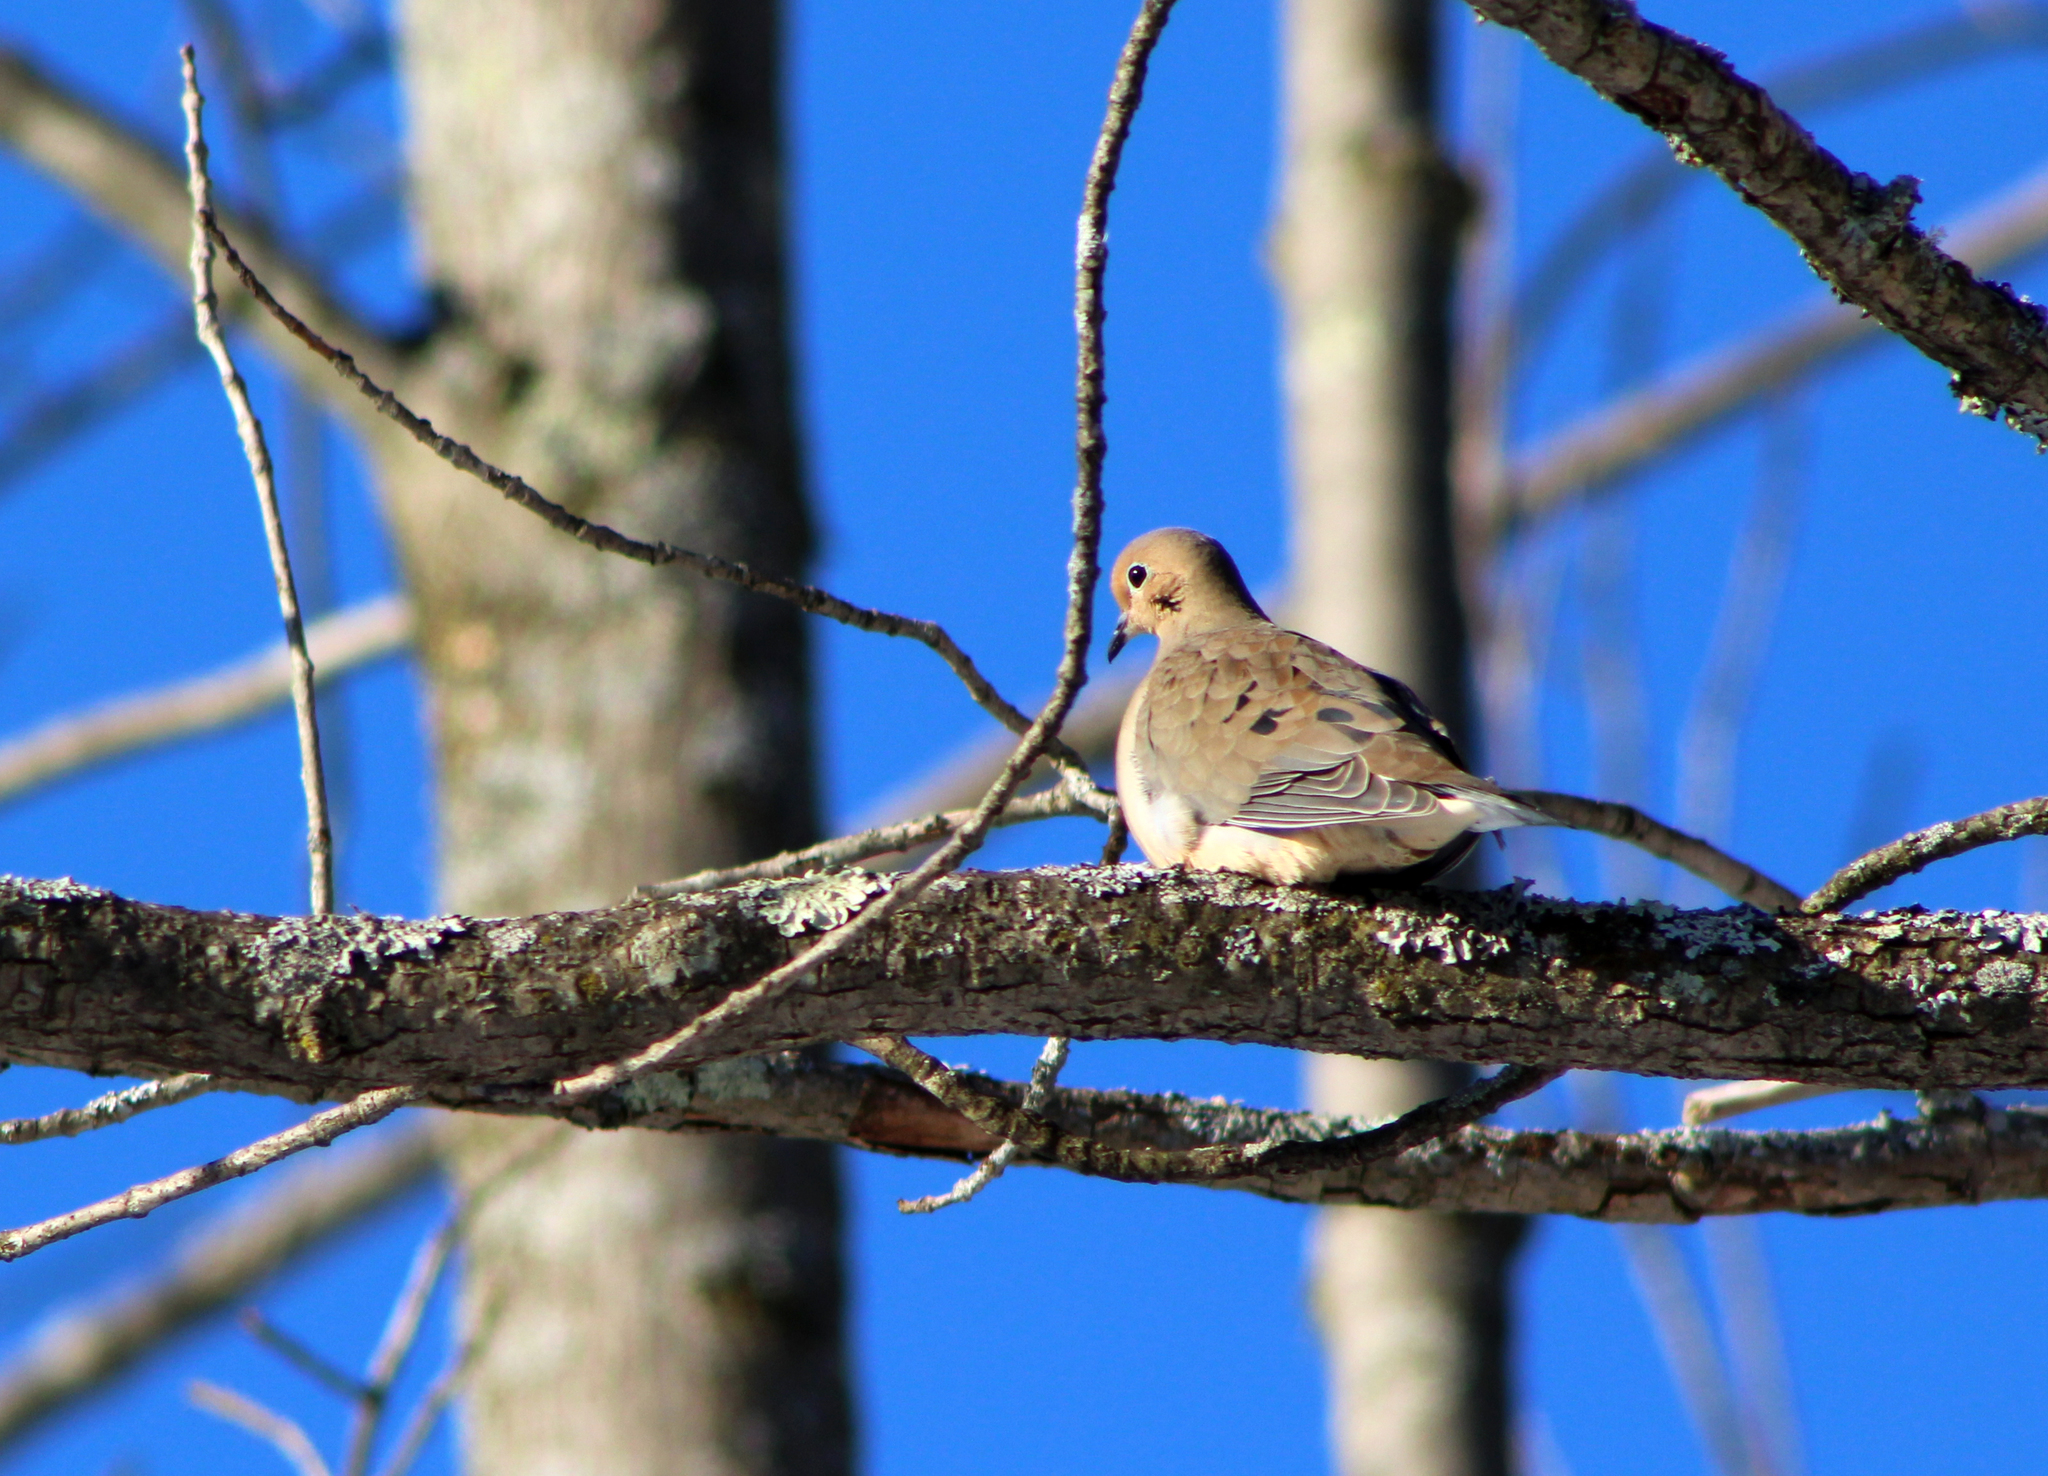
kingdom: Animalia
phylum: Chordata
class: Aves
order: Columbiformes
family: Columbidae
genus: Zenaida
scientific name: Zenaida macroura
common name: Mourning dove
